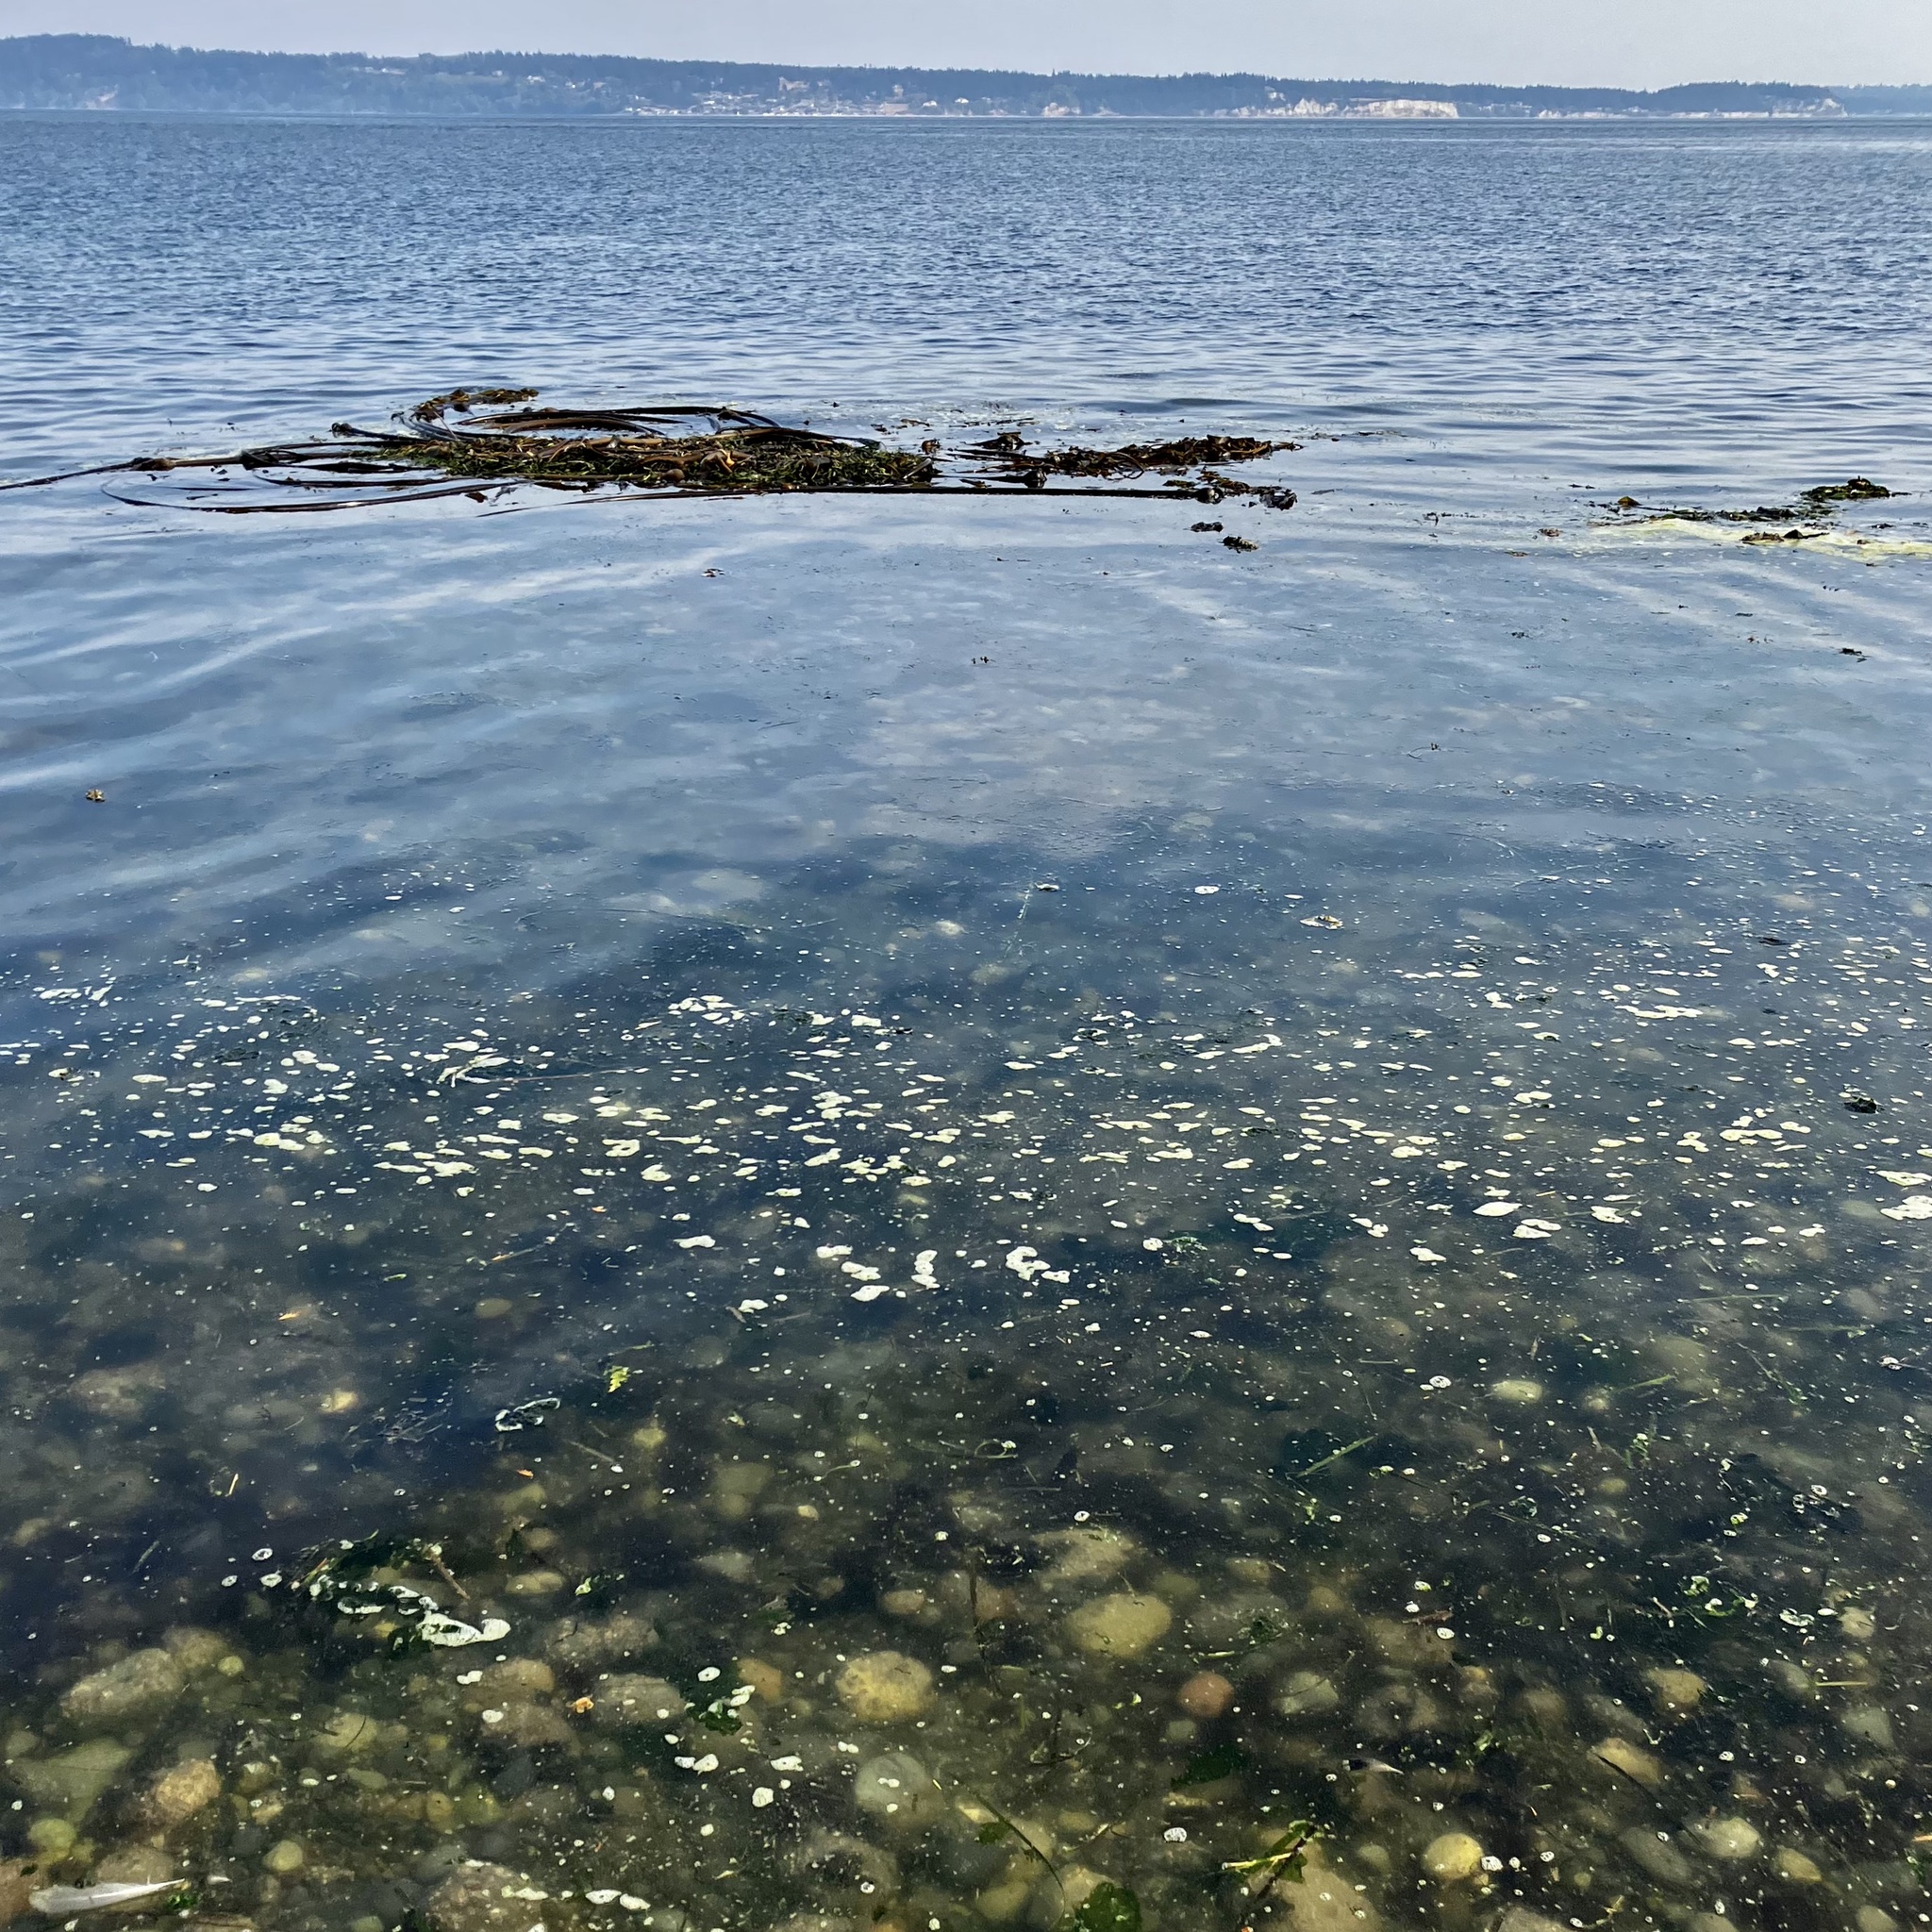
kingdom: Chromista
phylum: Ochrophyta
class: Phaeophyceae
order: Laminariales
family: Laminariaceae
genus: Nereocystis
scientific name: Nereocystis luetkeana
